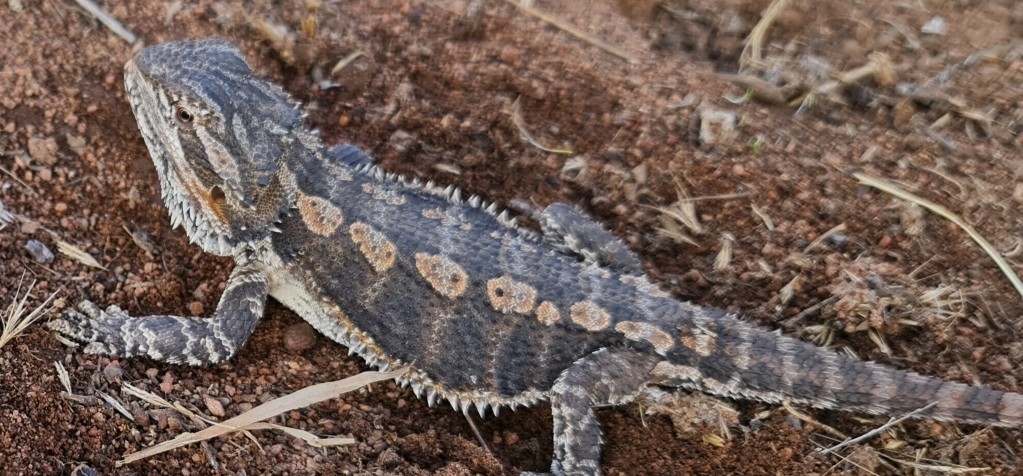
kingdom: Animalia
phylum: Chordata
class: Squamata
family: Agamidae
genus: Pogona
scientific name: Pogona vitticeps
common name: Central bearded dragon
